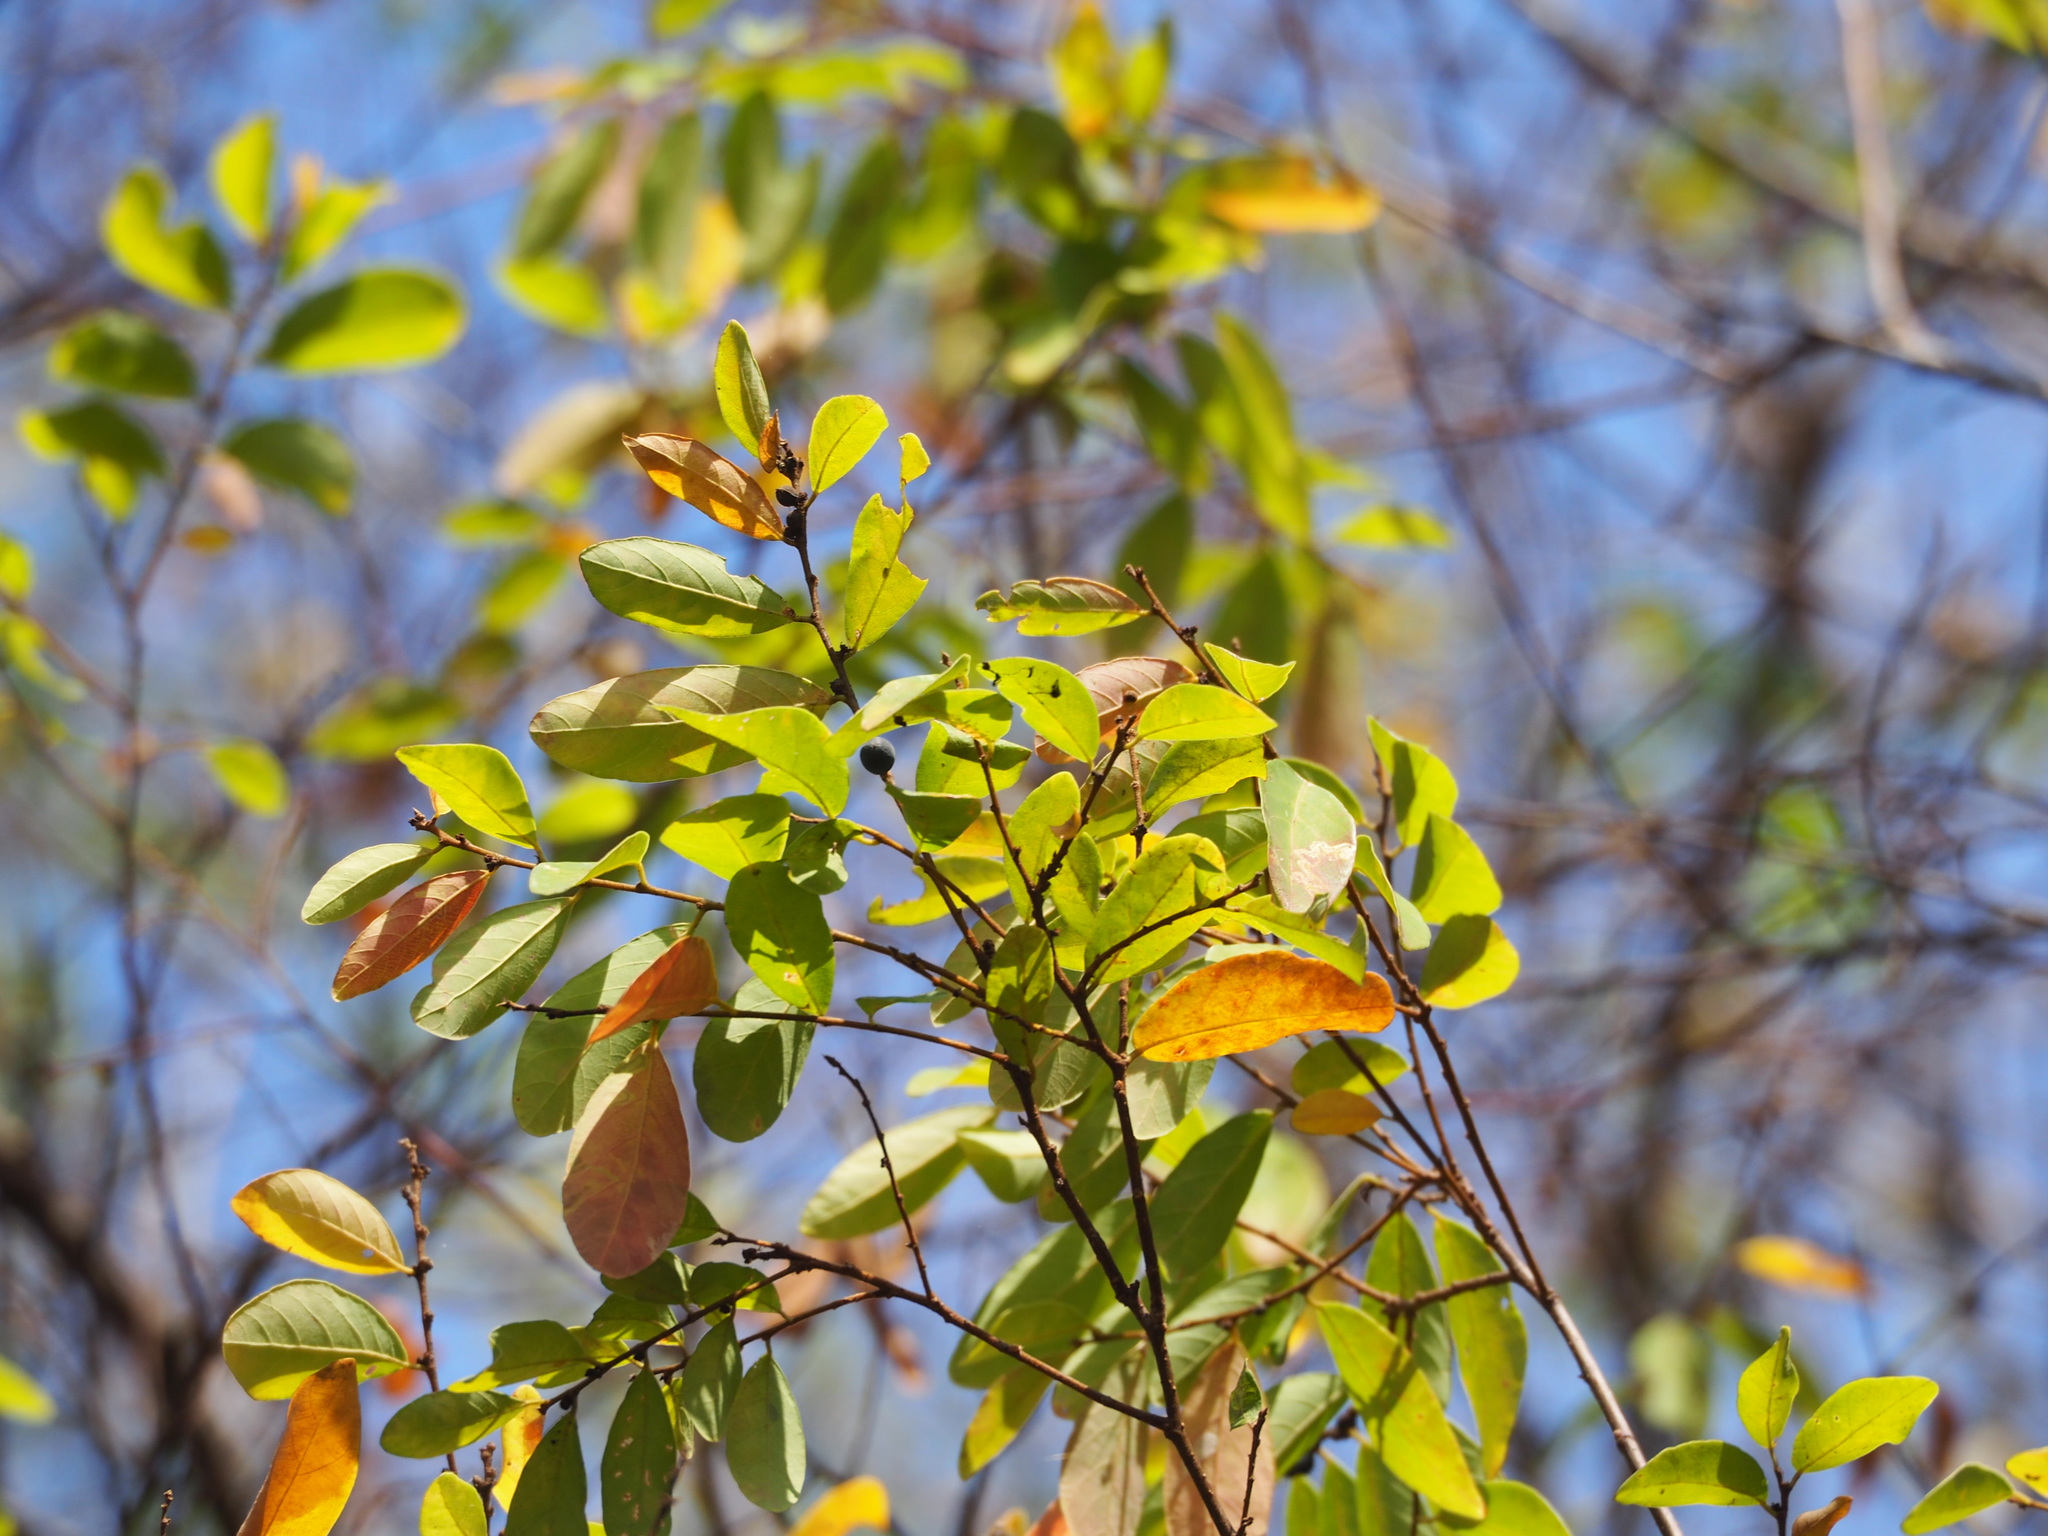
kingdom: Plantae
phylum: Tracheophyta
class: Magnoliopsida
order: Malpighiales
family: Phyllanthaceae
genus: Bridelia
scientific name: Bridelia tomentosa
